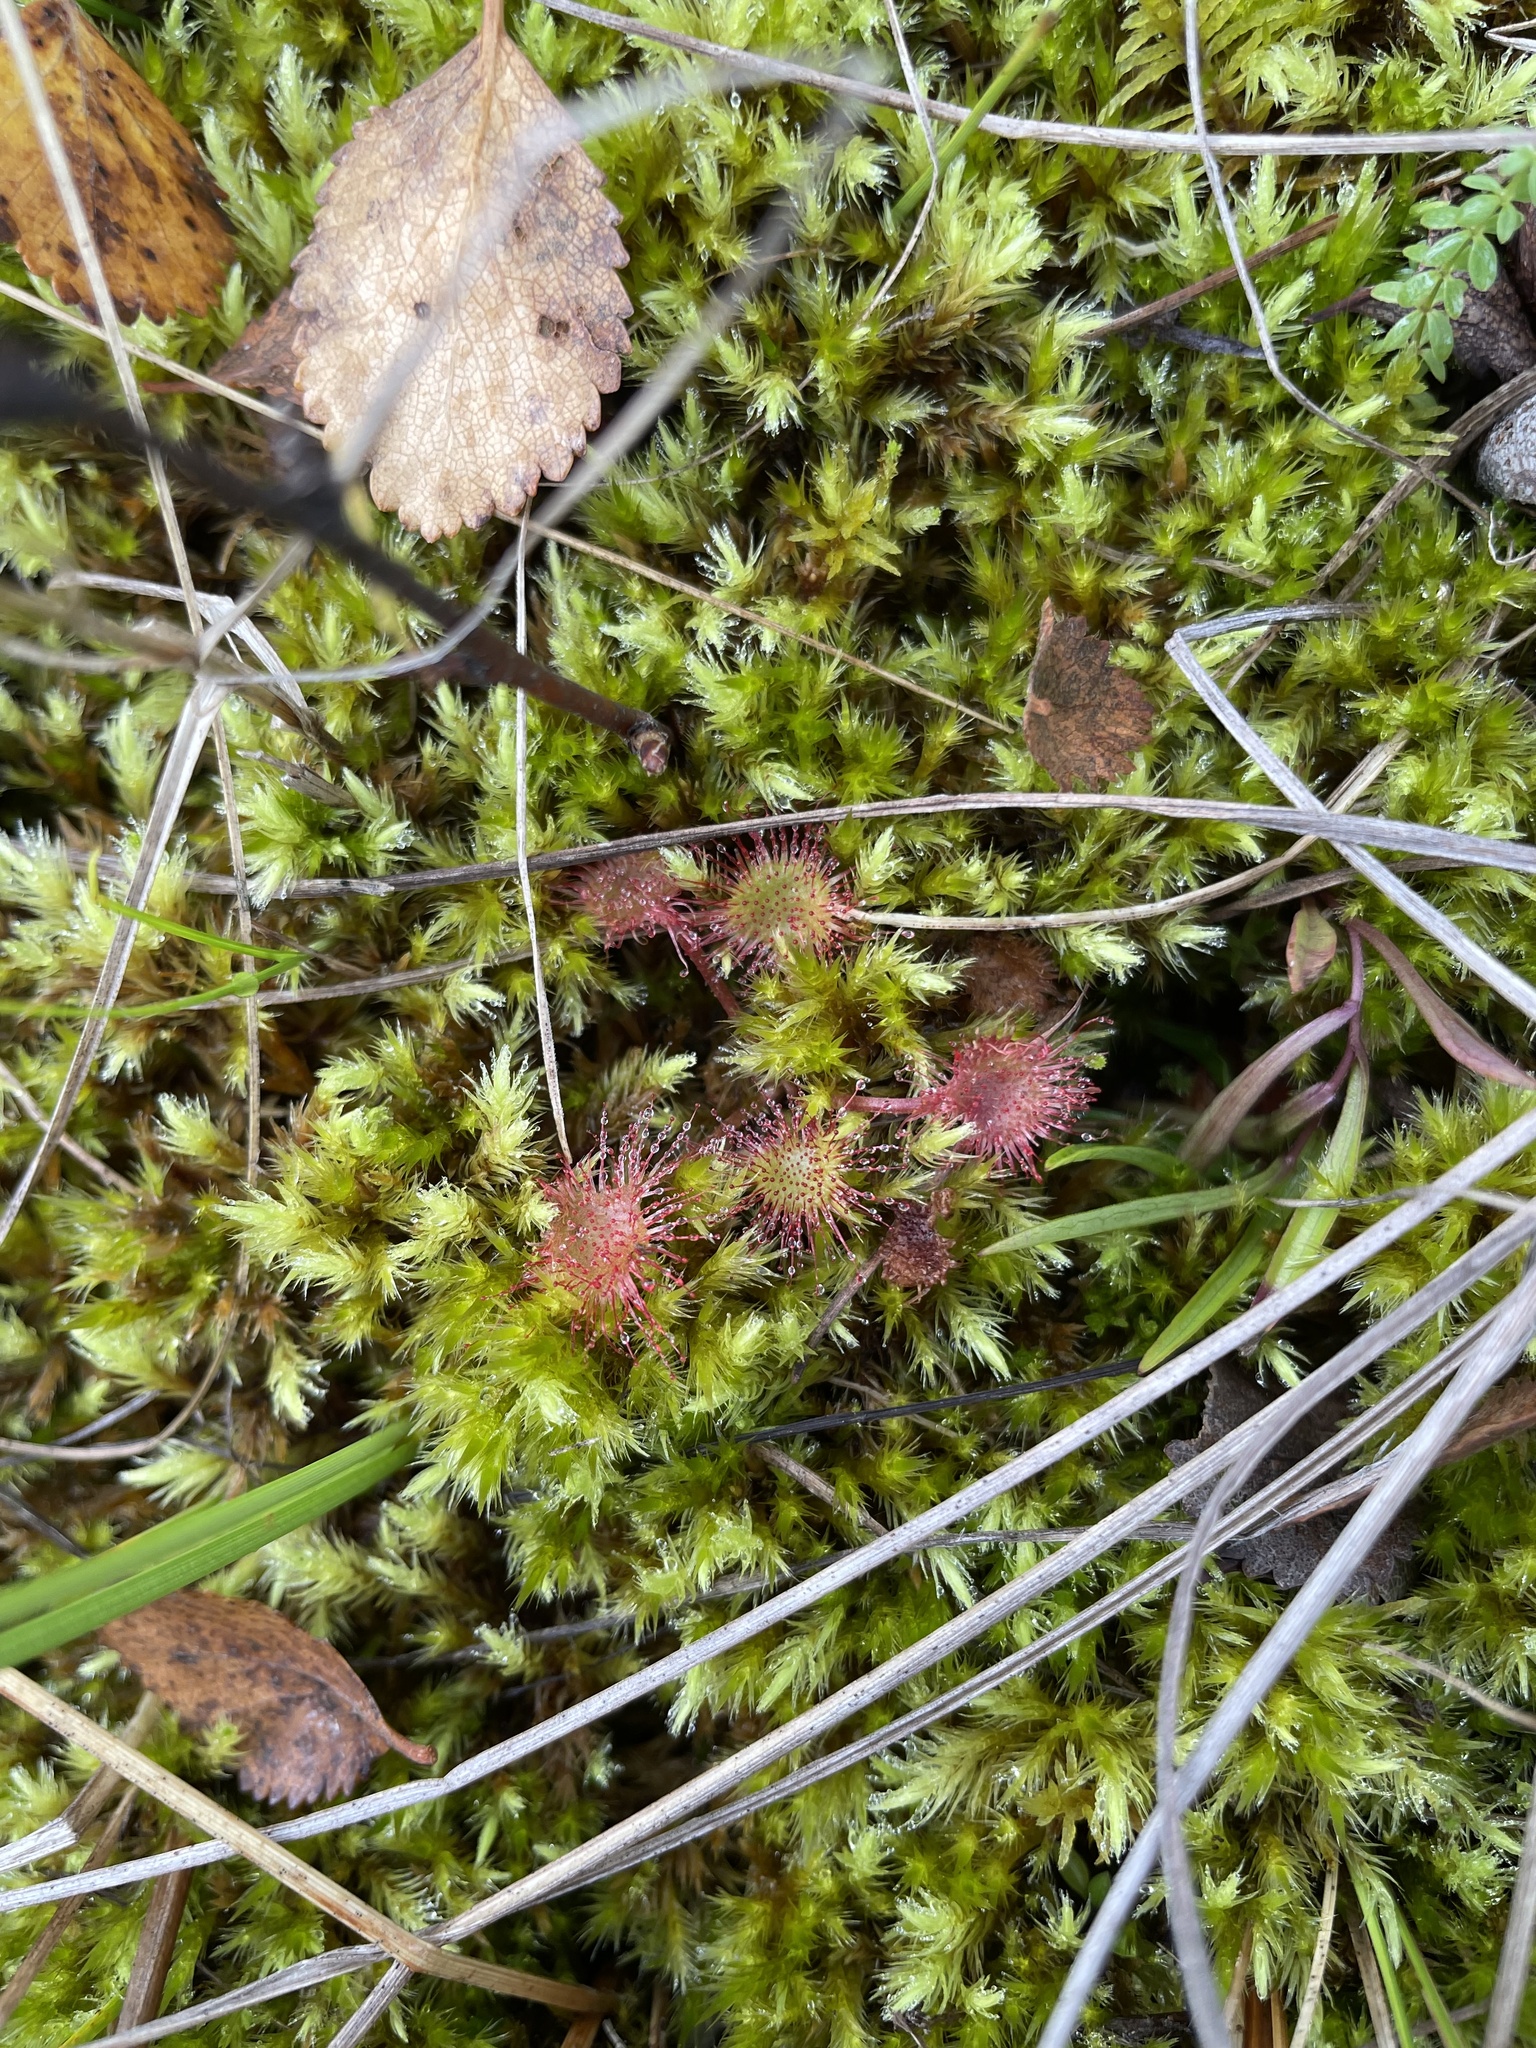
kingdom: Plantae
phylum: Tracheophyta
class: Magnoliopsida
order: Caryophyllales
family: Droseraceae
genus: Drosera
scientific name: Drosera rotundifolia
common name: Round-leaved sundew
